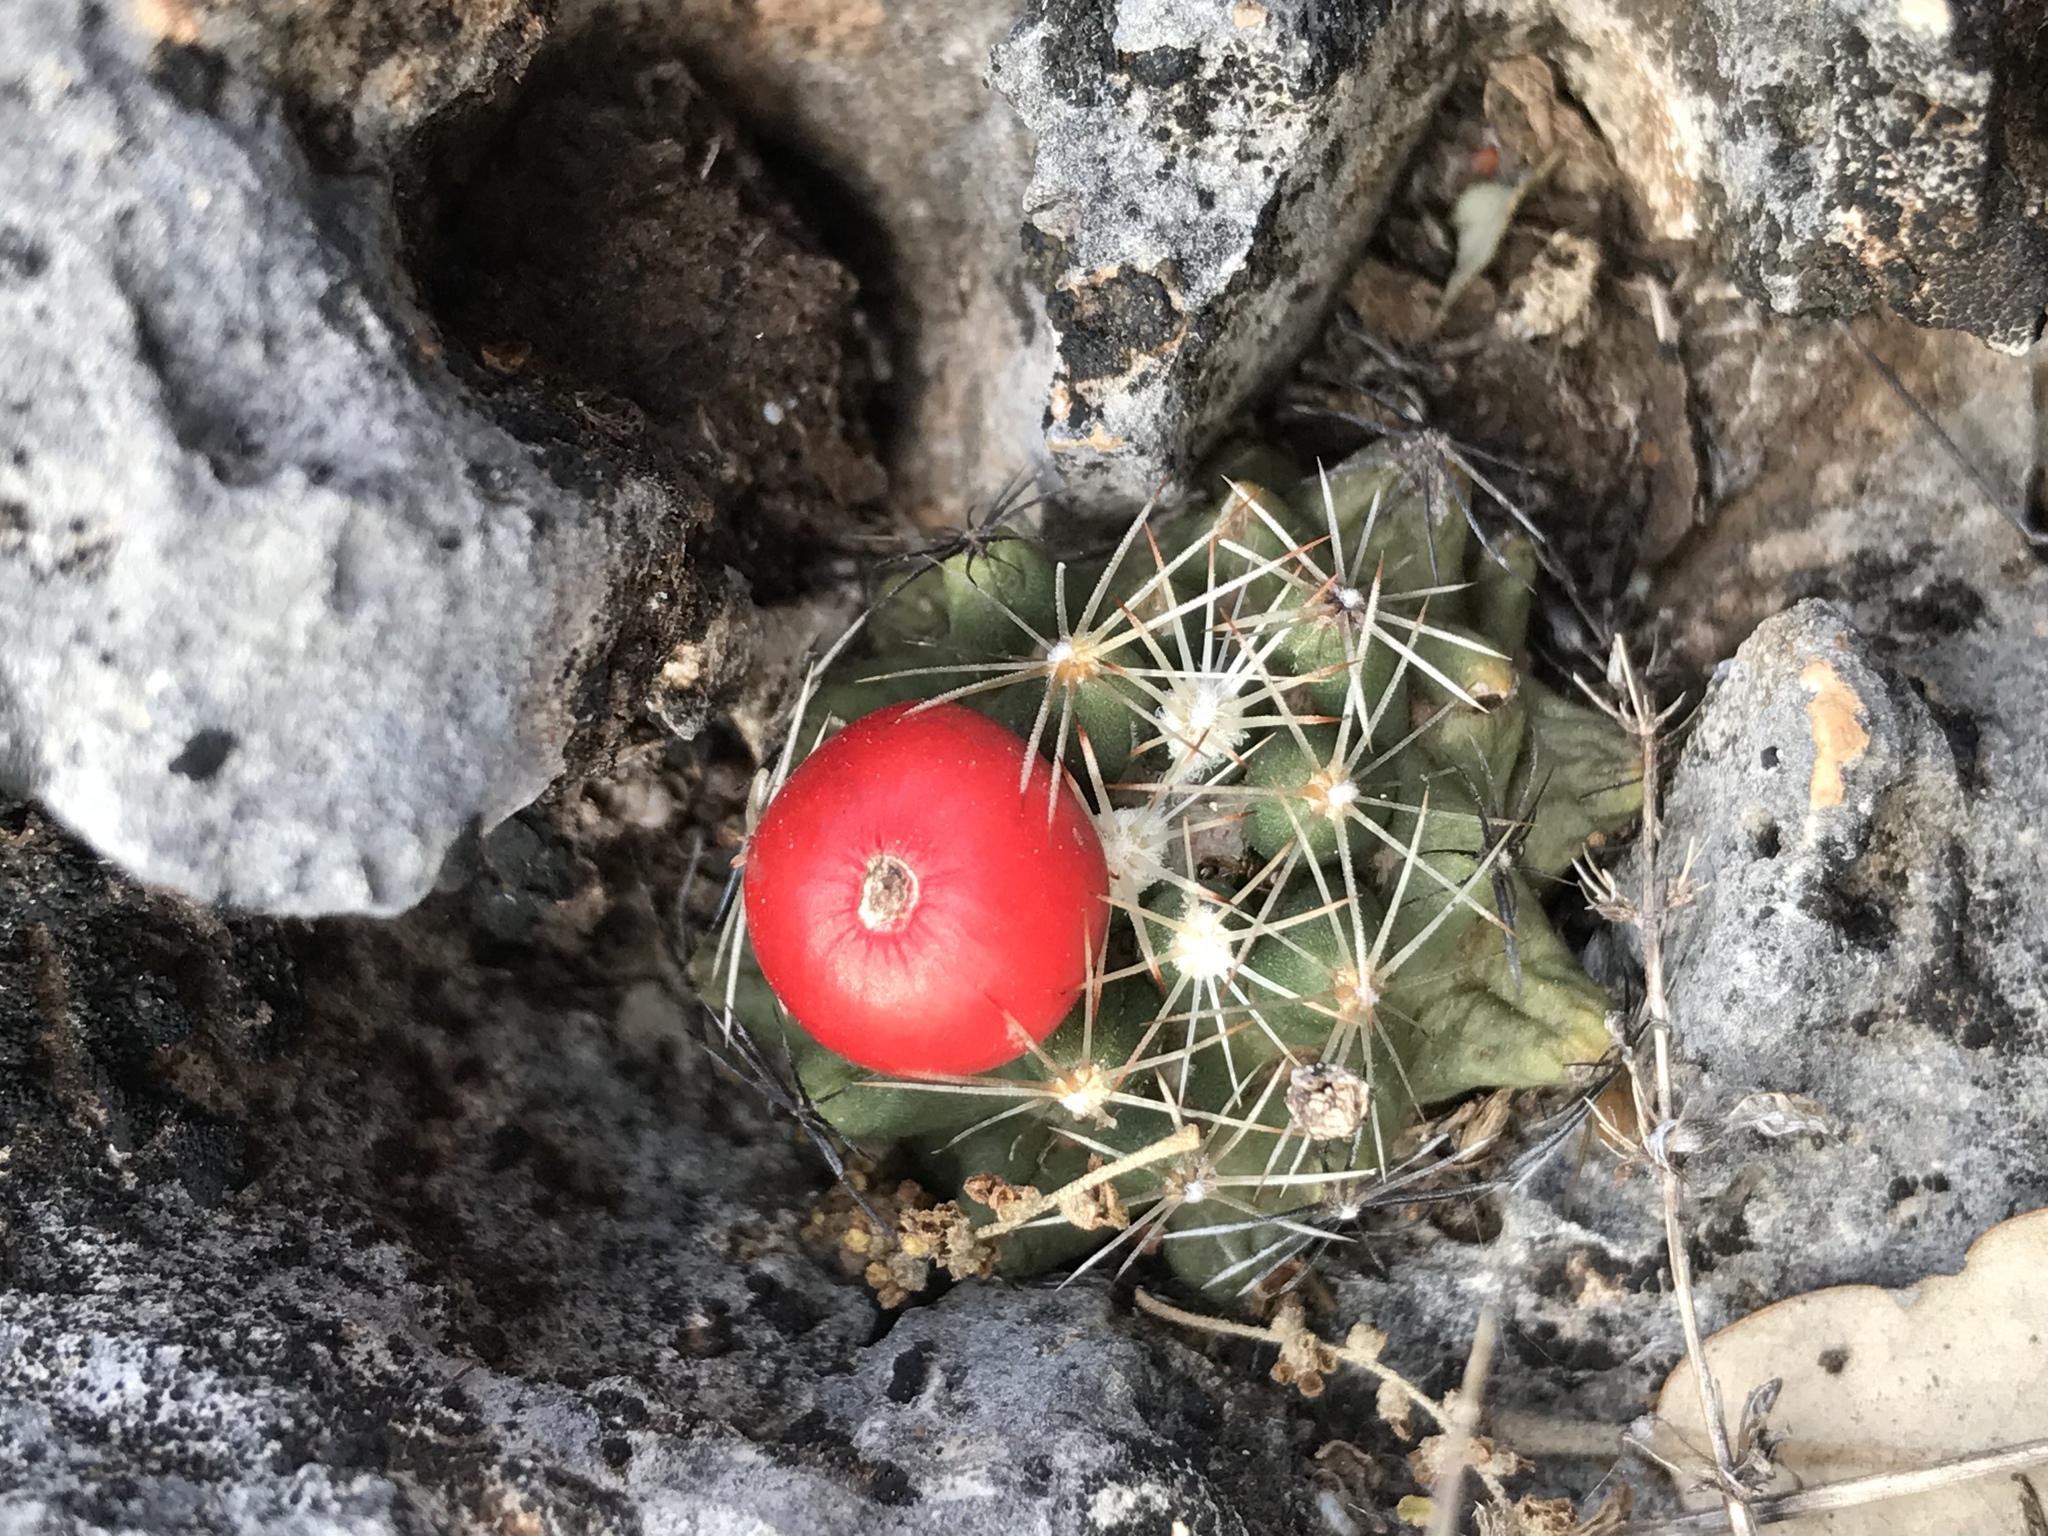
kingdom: Plantae
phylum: Tracheophyta
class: Magnoliopsida
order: Caryophyllales
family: Cactaceae
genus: Pelecyphora
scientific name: Pelecyphora missouriensis
